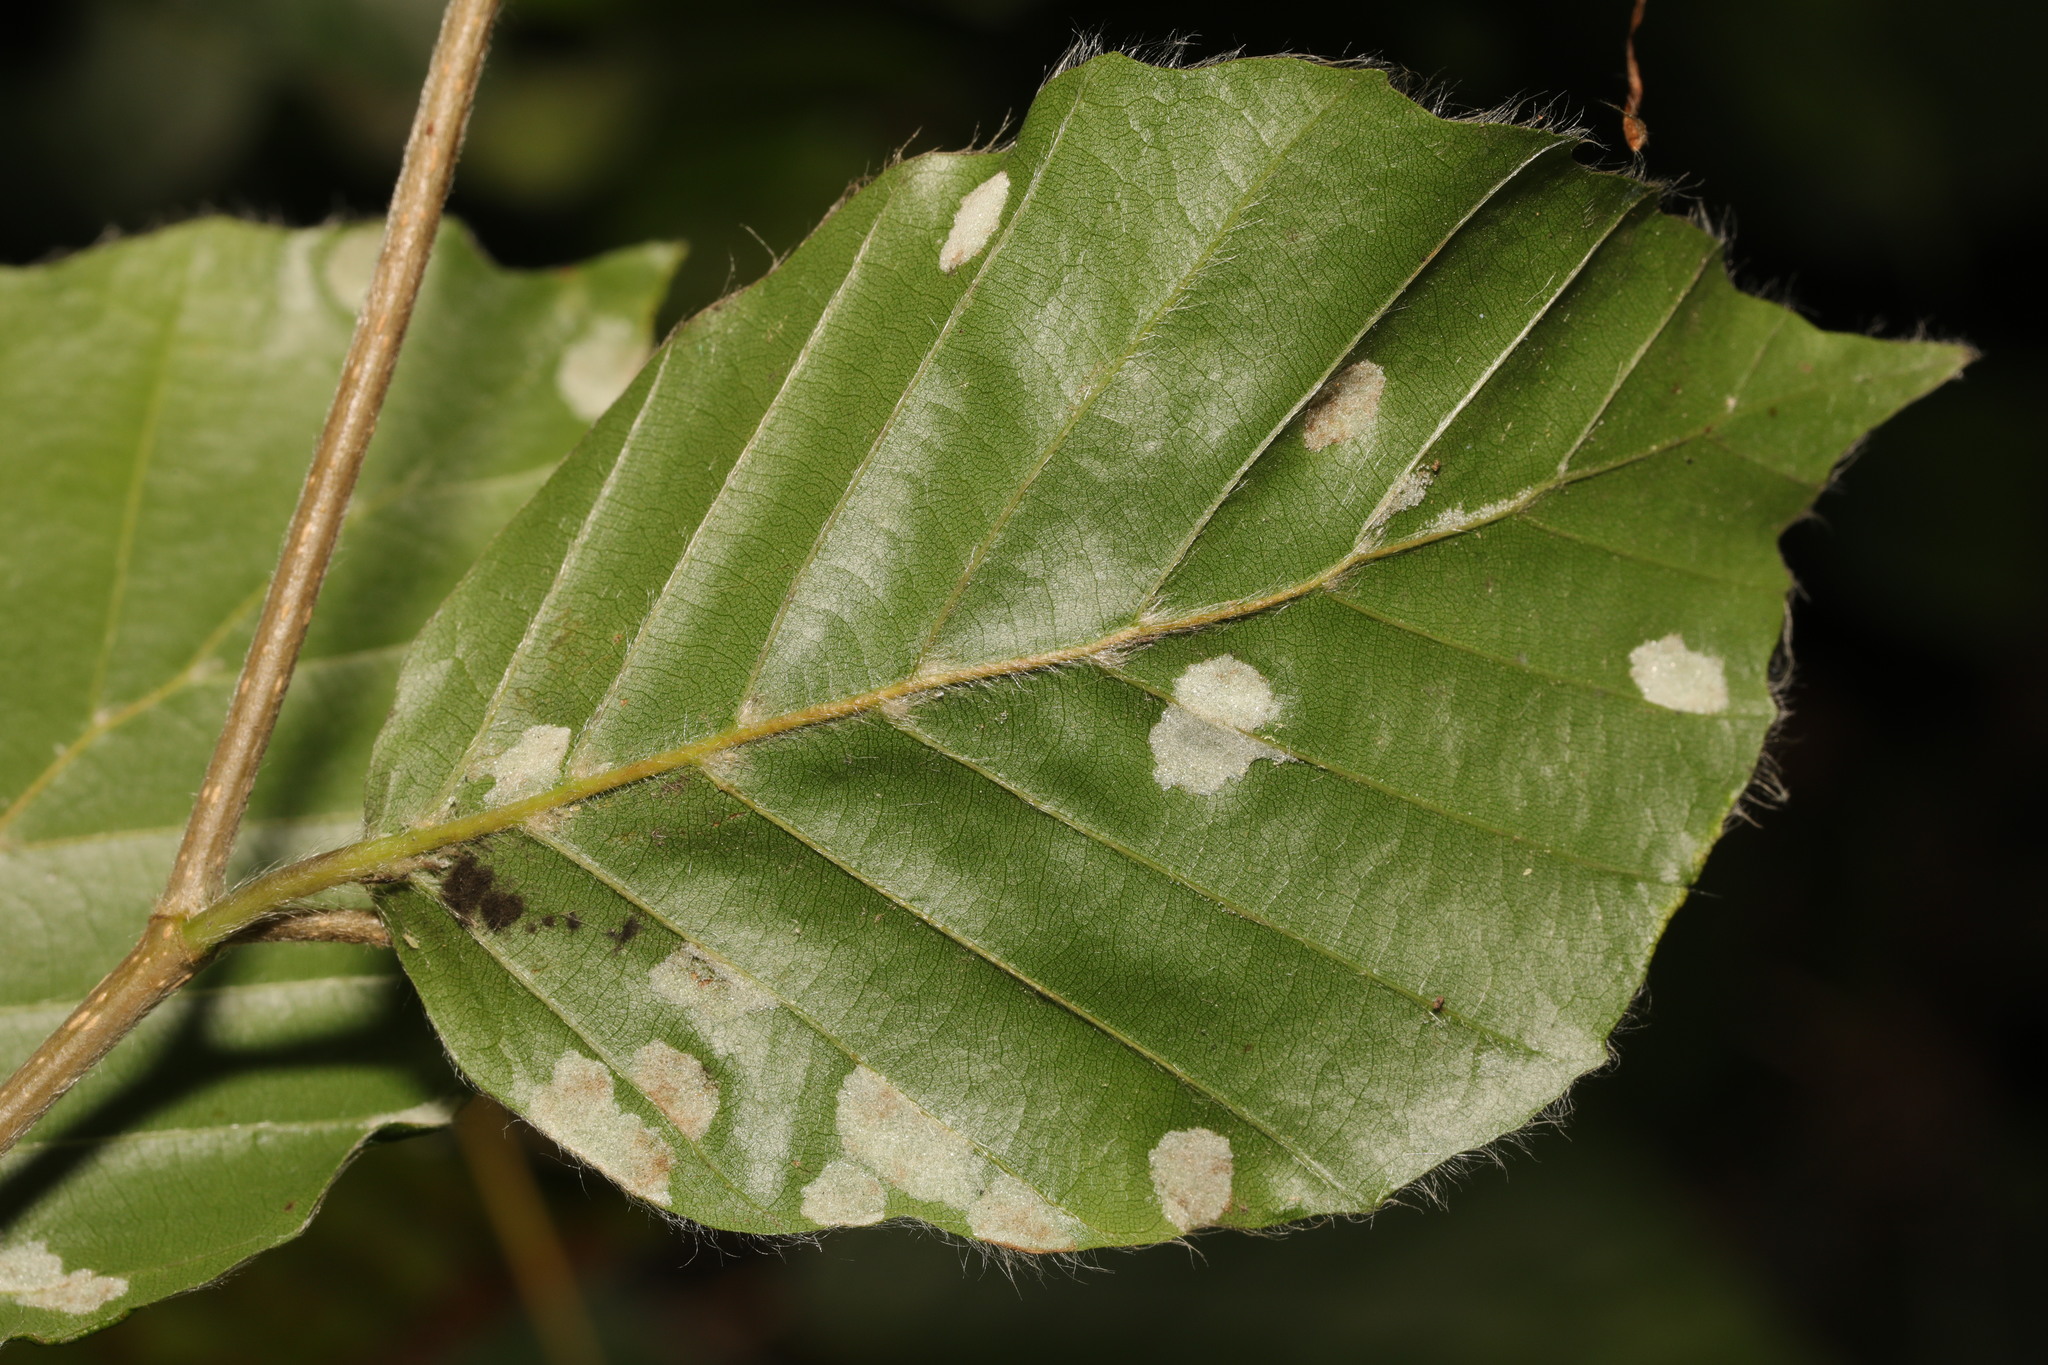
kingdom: Animalia
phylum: Arthropoda
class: Arachnida
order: Trombidiformes
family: Eriophyidae
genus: Aceria
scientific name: Aceria nervisequa
